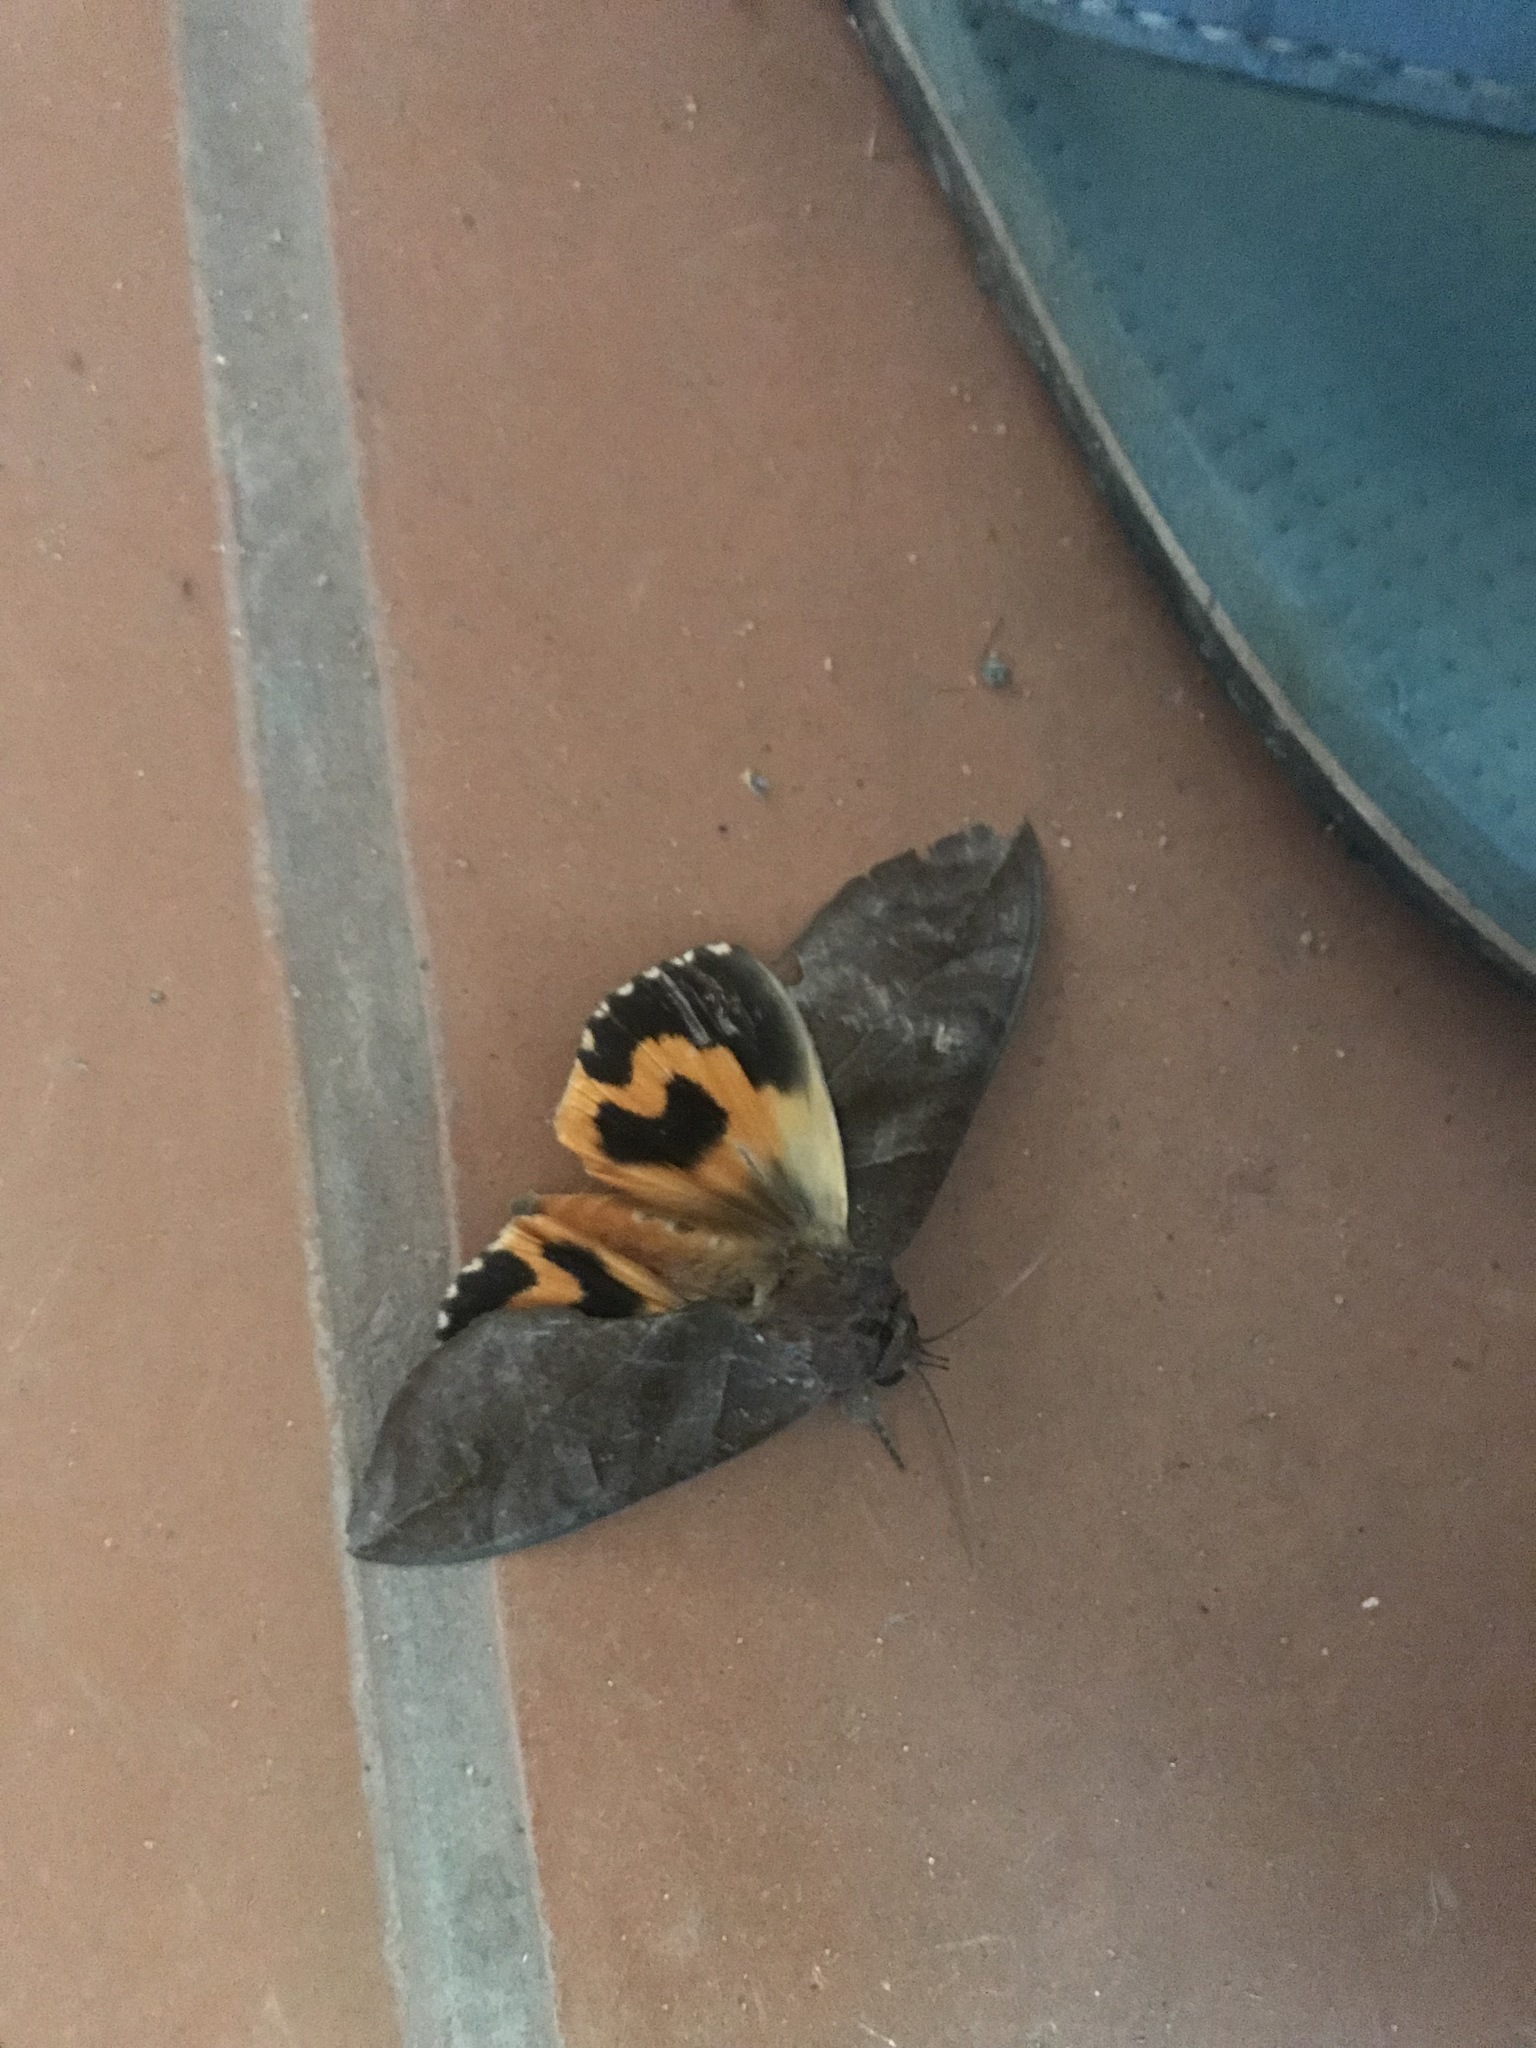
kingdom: Animalia
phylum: Arthropoda
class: Insecta
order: Lepidoptera
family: Erebidae
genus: Eudocima
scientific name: Eudocima phalonia
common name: Wasp
